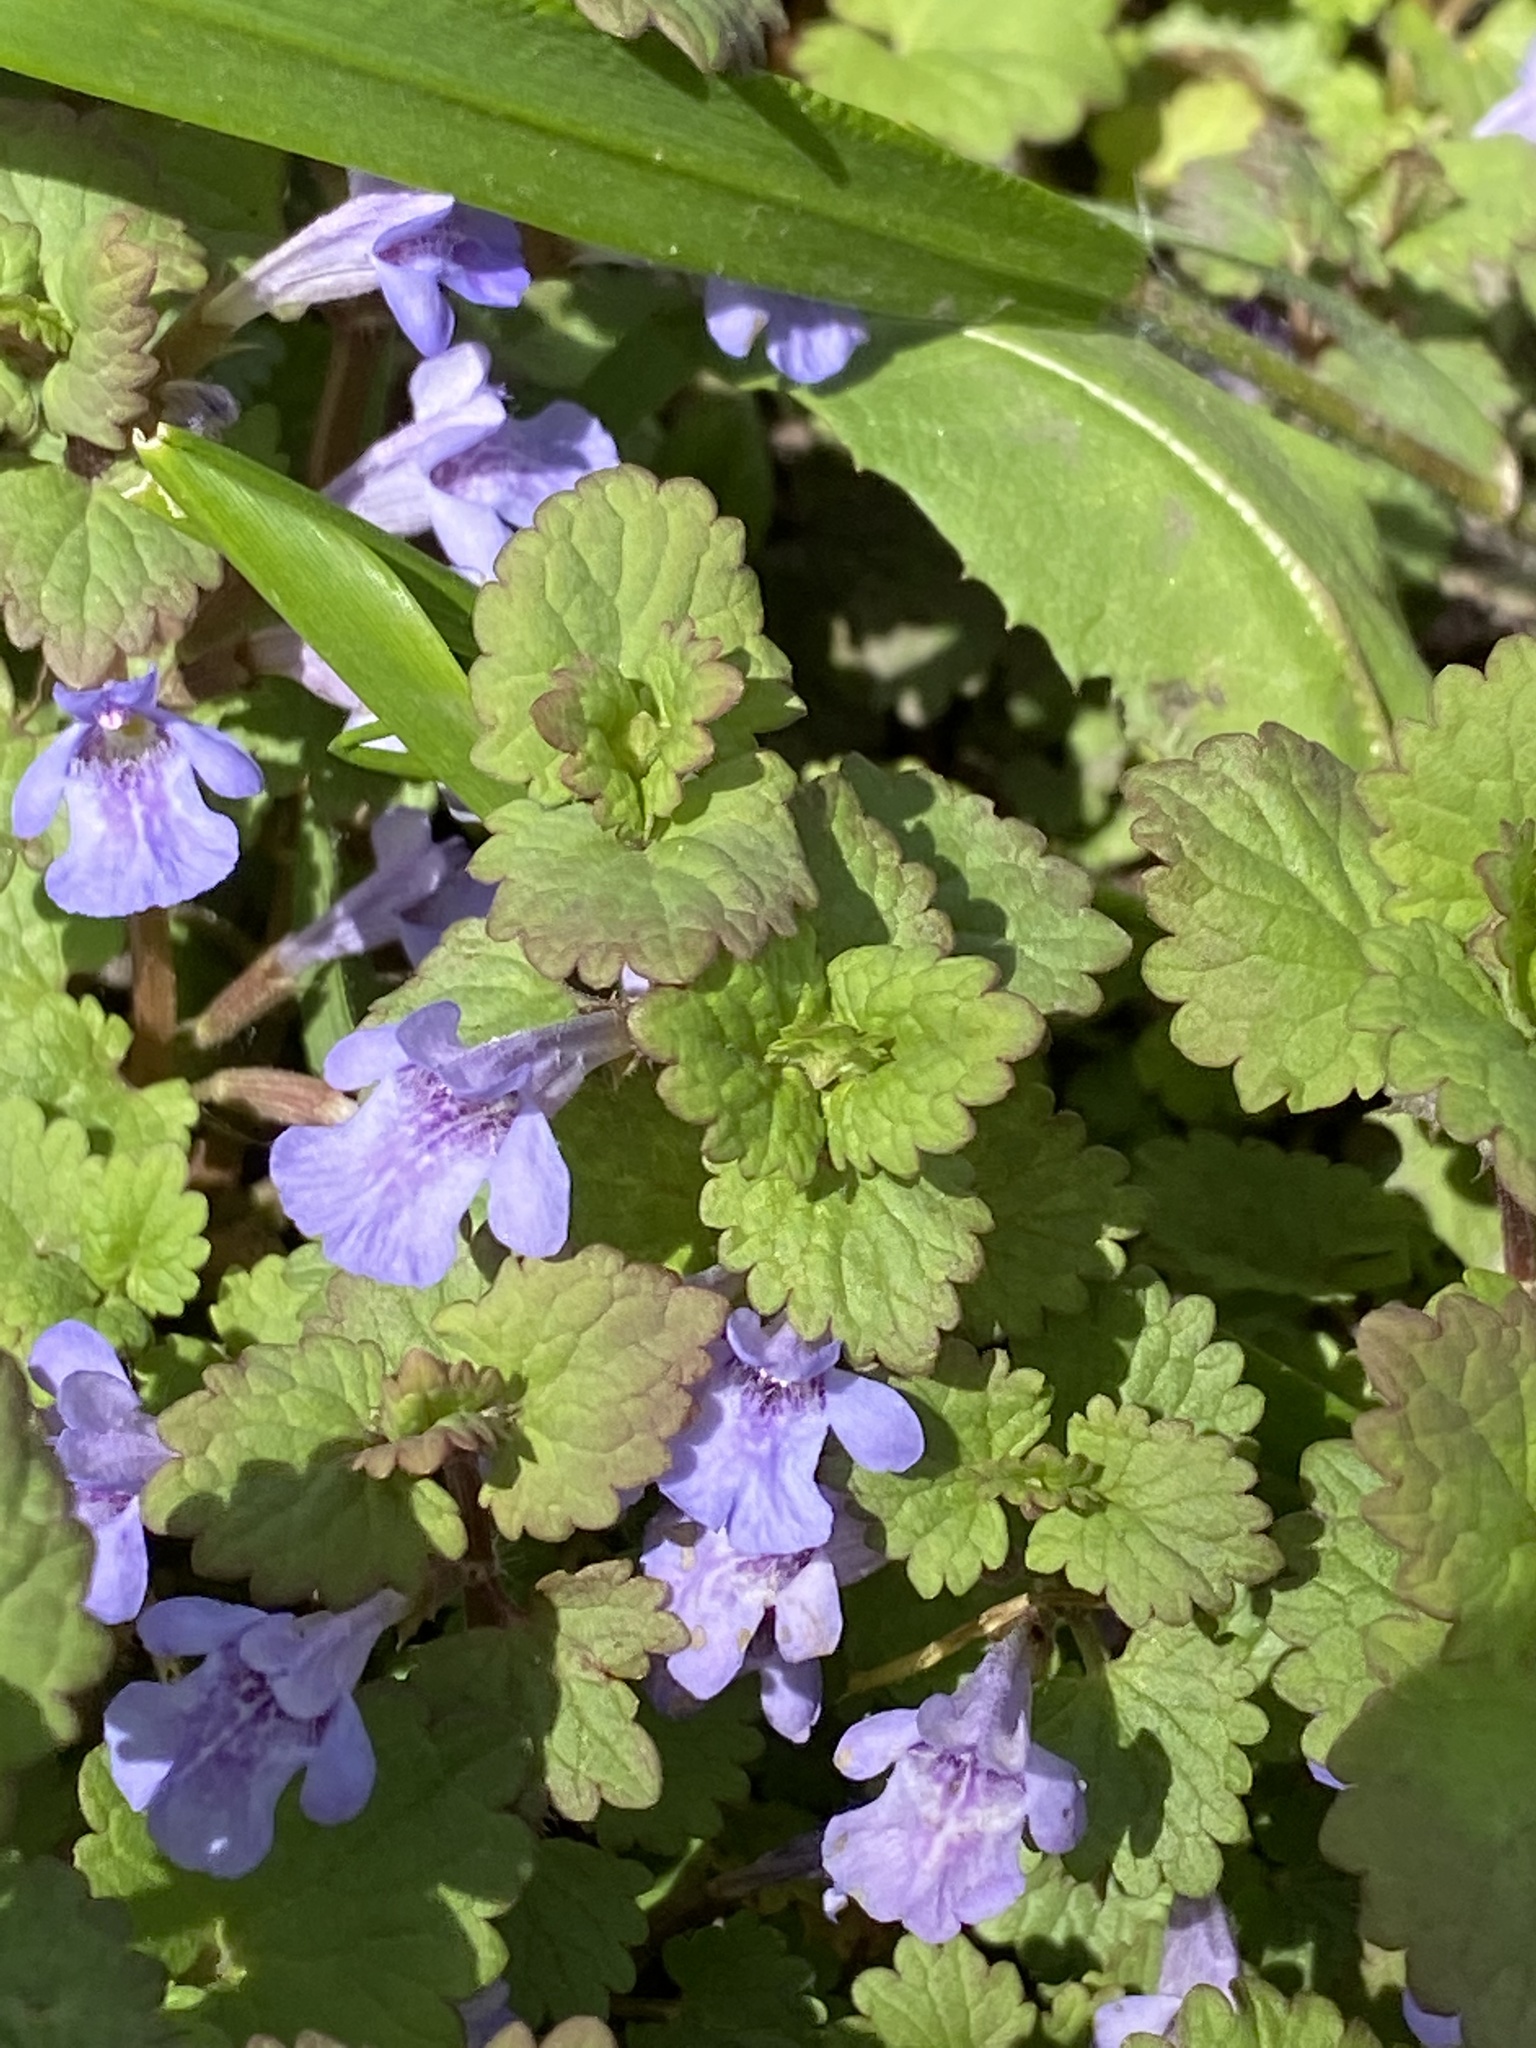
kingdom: Plantae
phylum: Tracheophyta
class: Magnoliopsida
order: Lamiales
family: Lamiaceae
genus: Glechoma
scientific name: Glechoma hederacea
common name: Ground ivy
